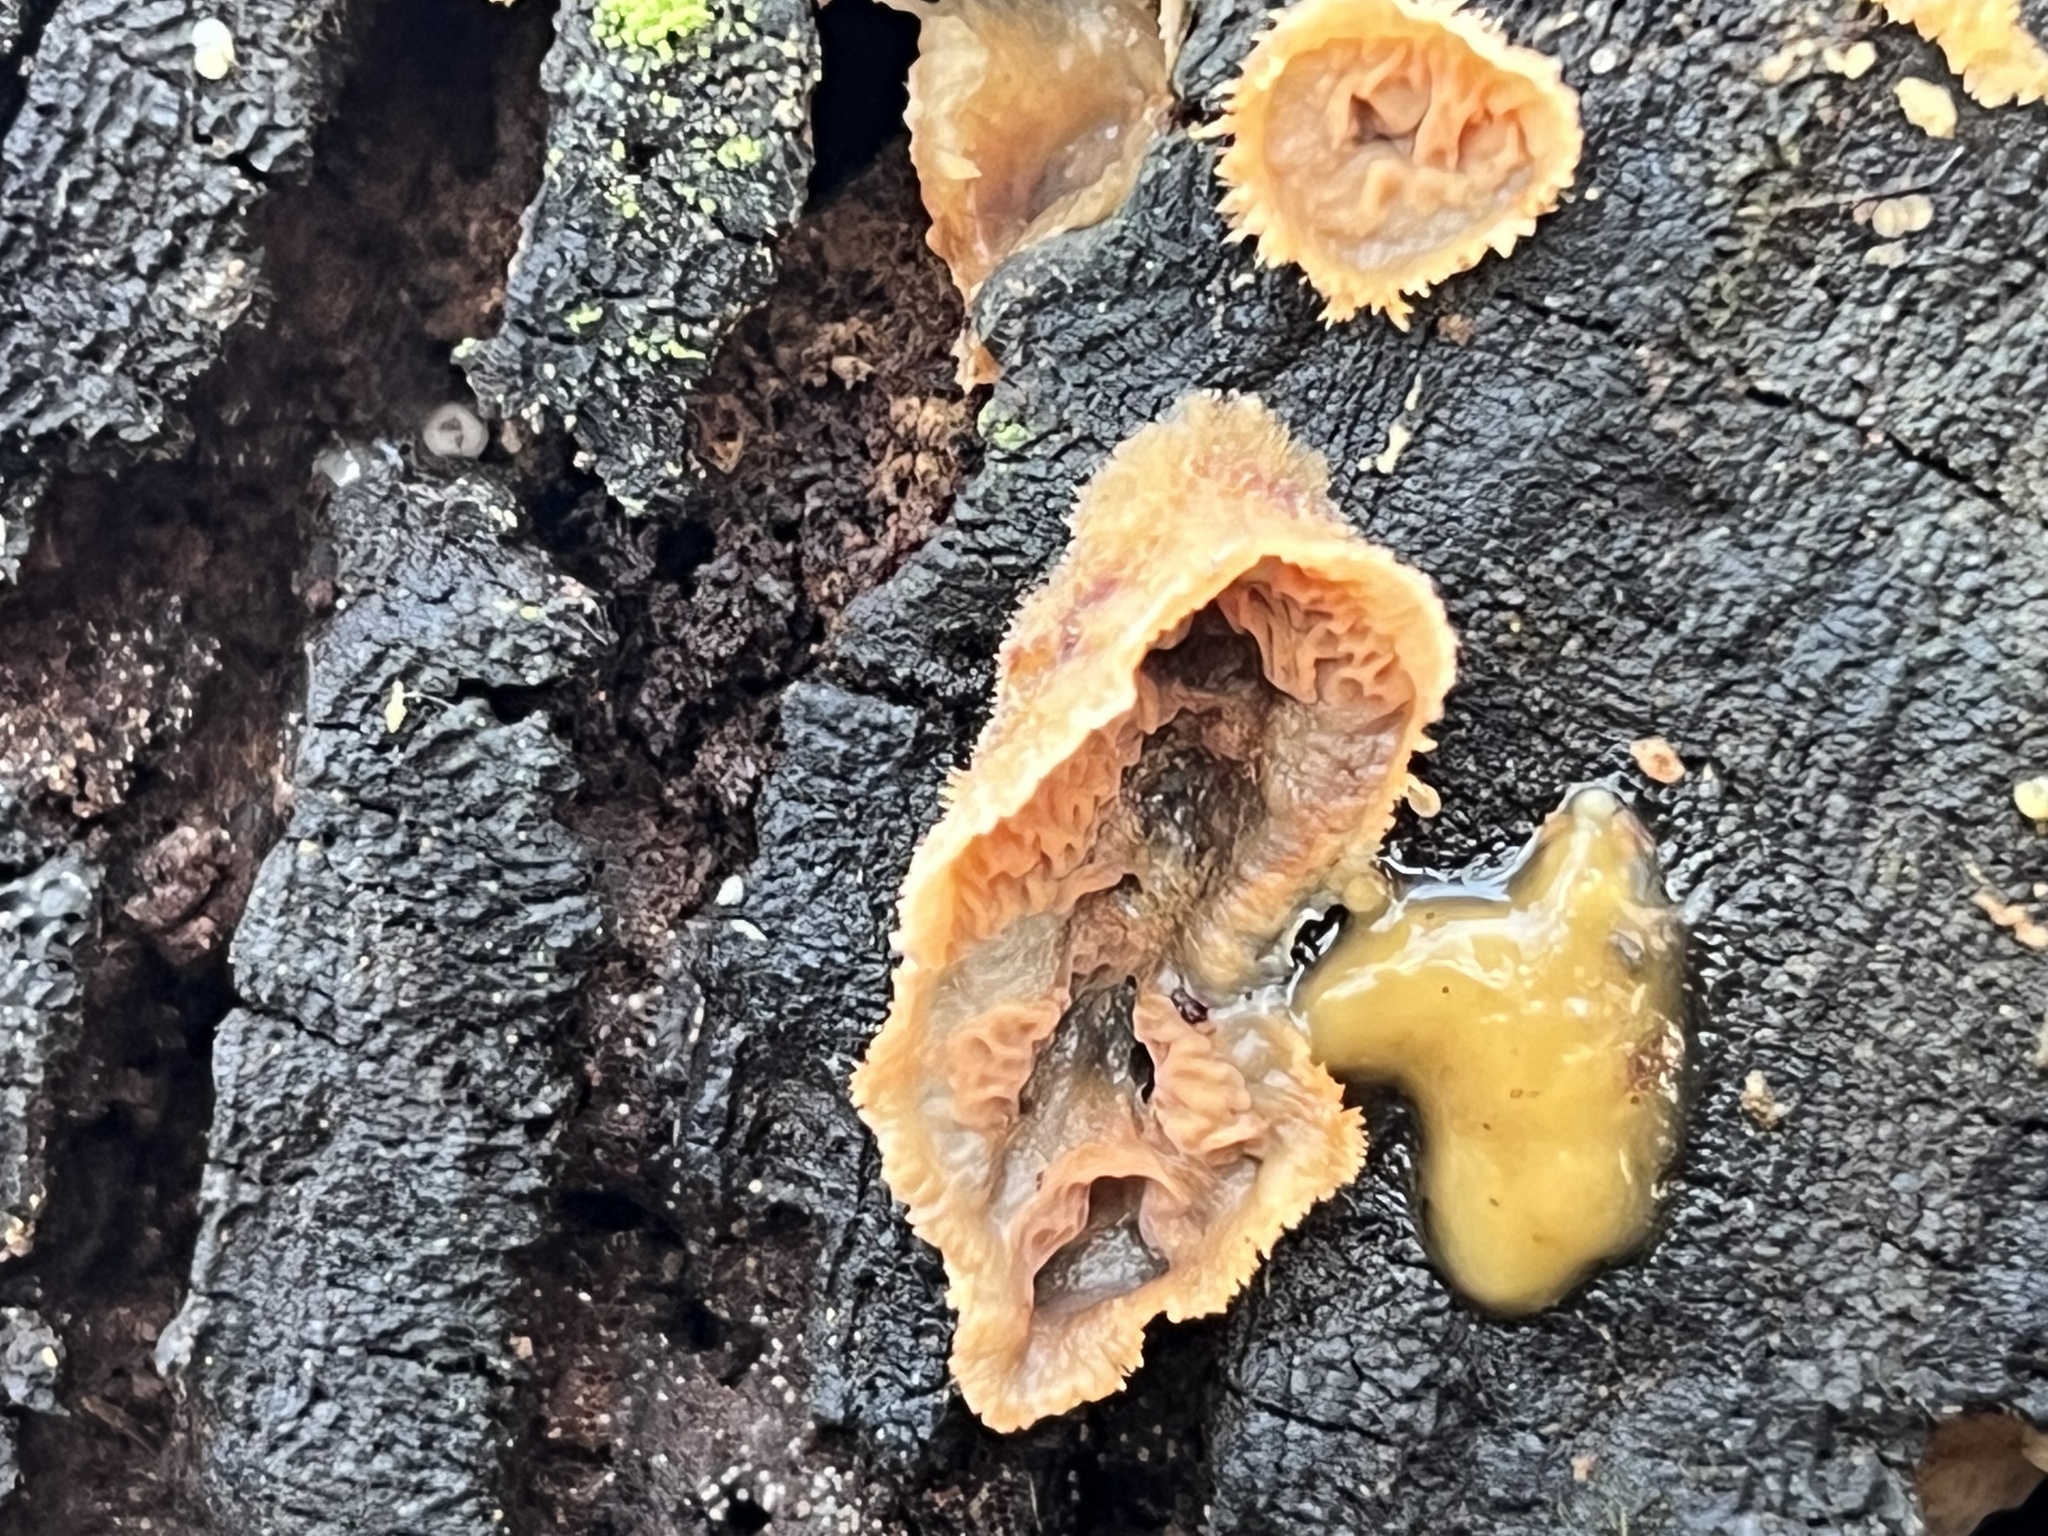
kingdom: Fungi
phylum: Basidiomycota
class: Agaricomycetes
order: Polyporales
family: Meruliaceae
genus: Phlebia
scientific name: Phlebia tremellosa
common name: Jelly rot
